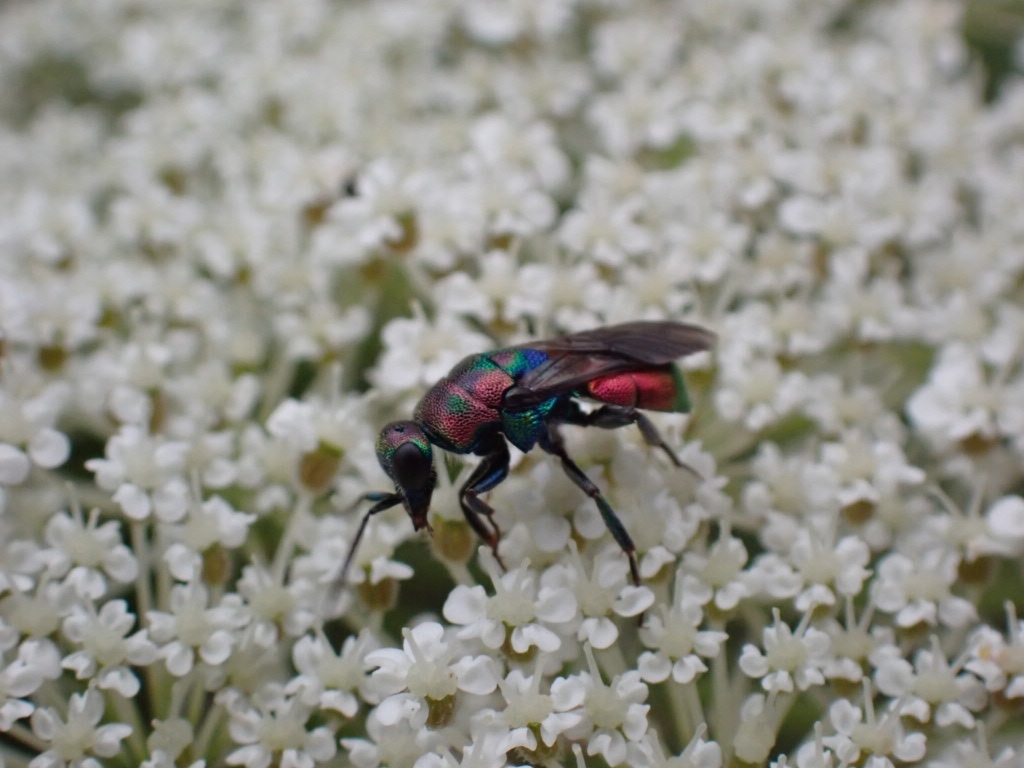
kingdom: Animalia
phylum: Arthropoda
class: Insecta
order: Hymenoptera
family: Chrysididae
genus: Hedychrum
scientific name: Hedychrum rutilans
